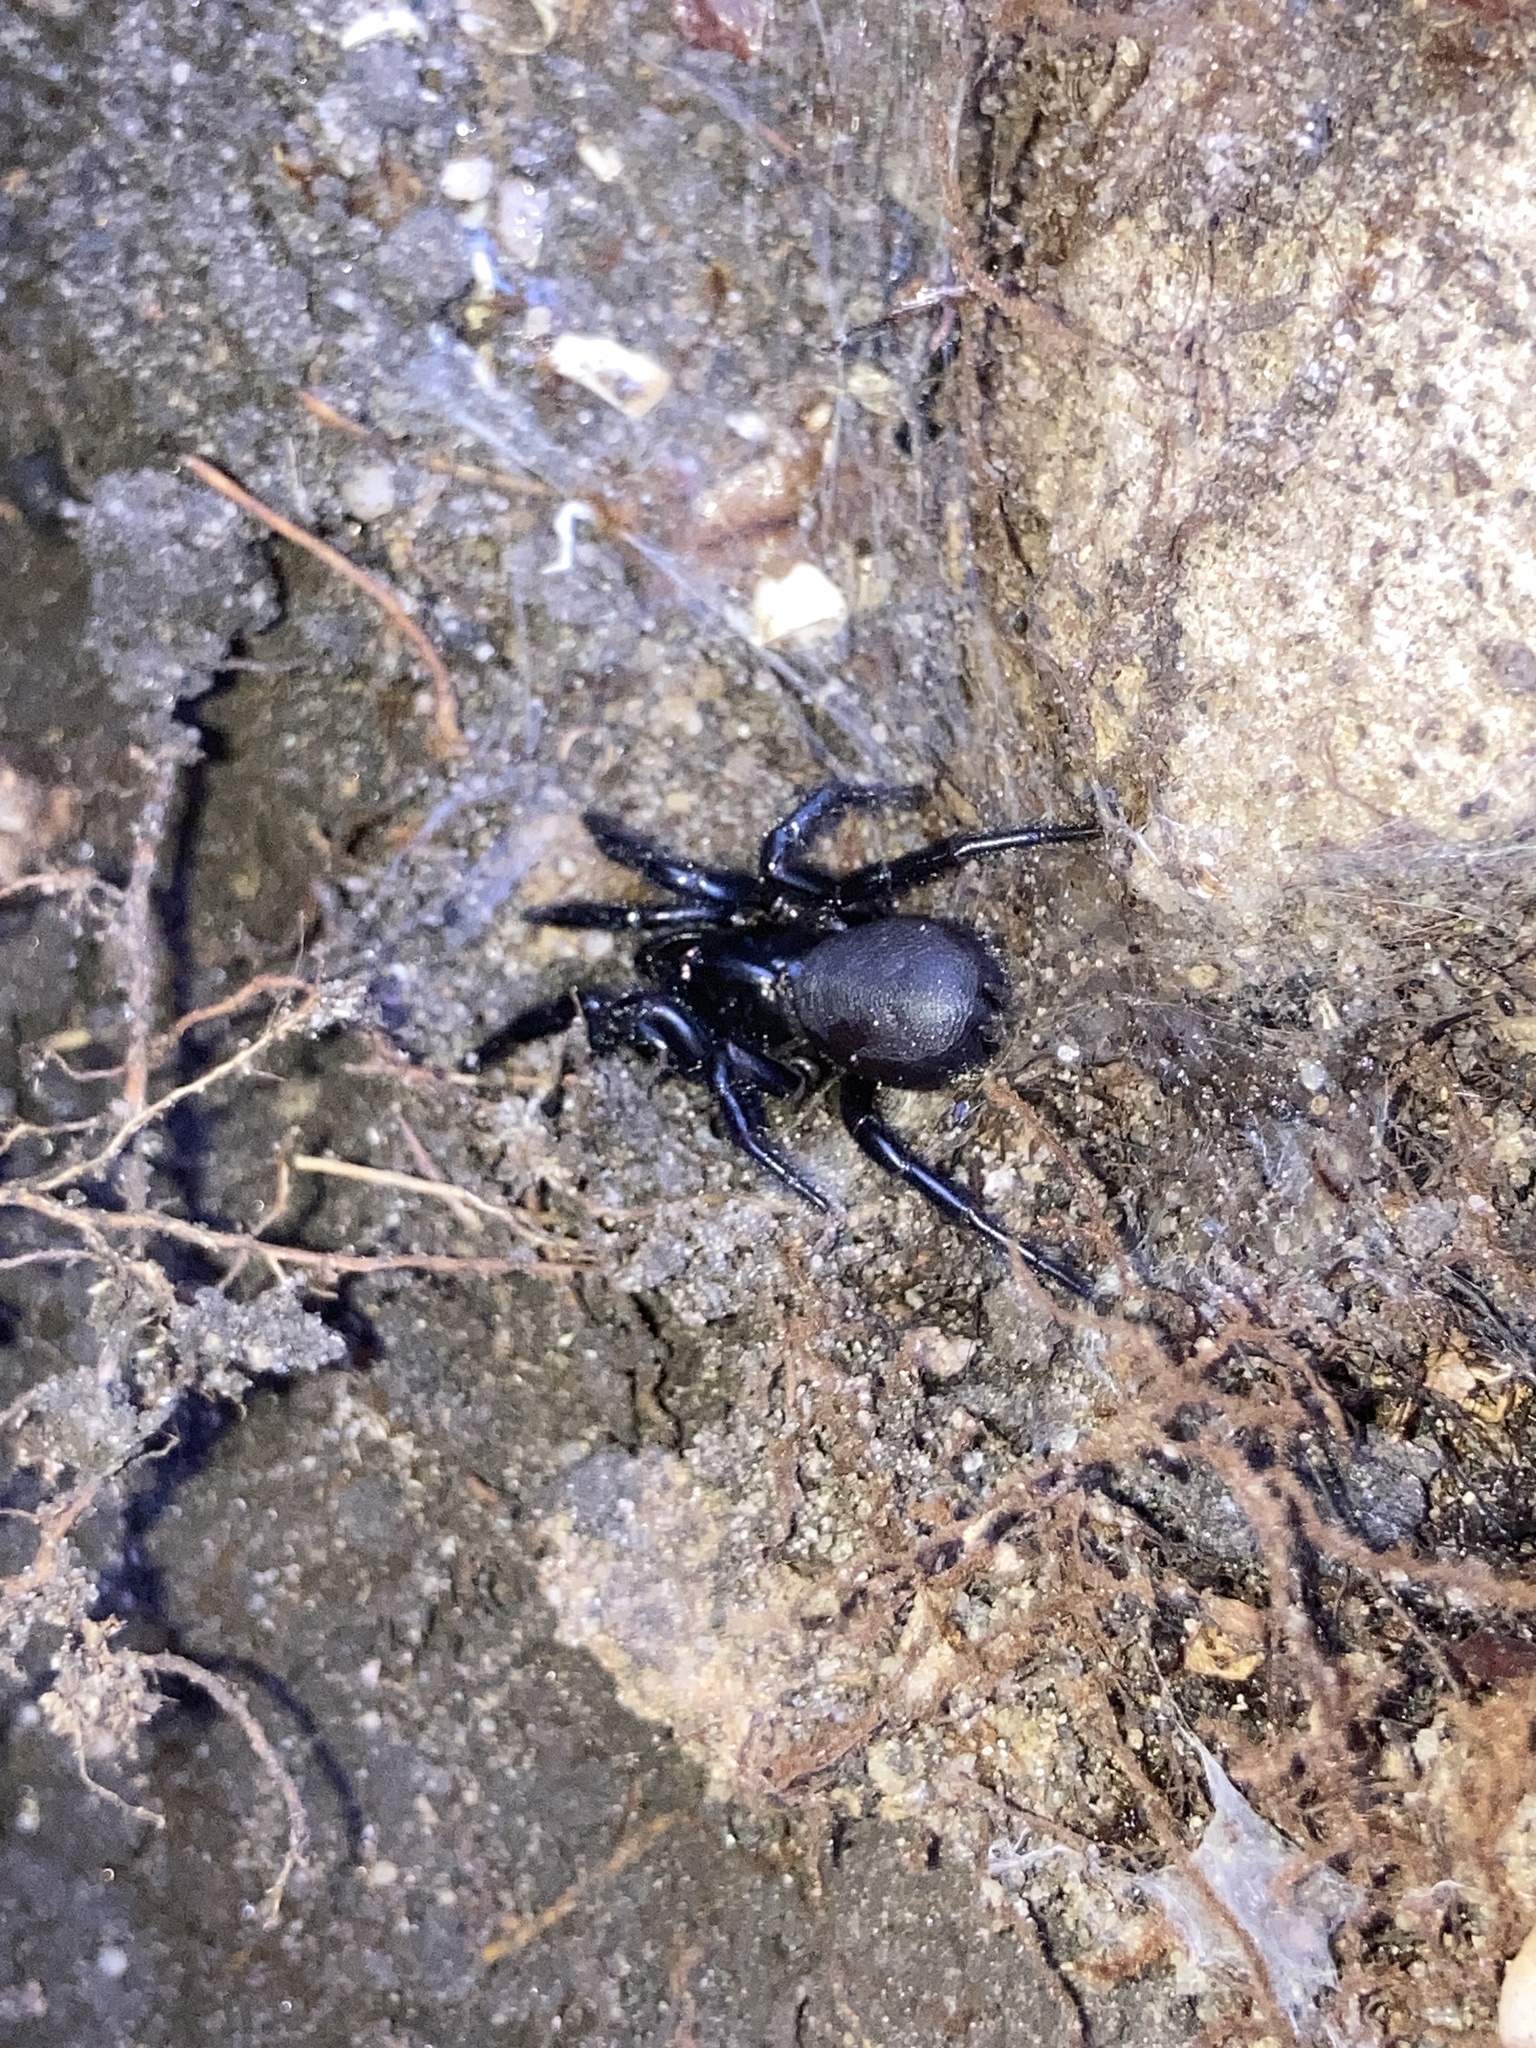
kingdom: Animalia
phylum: Arthropoda
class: Arachnida
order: Araneae
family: Atracidae
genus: Atrax
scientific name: Atrax robustus
